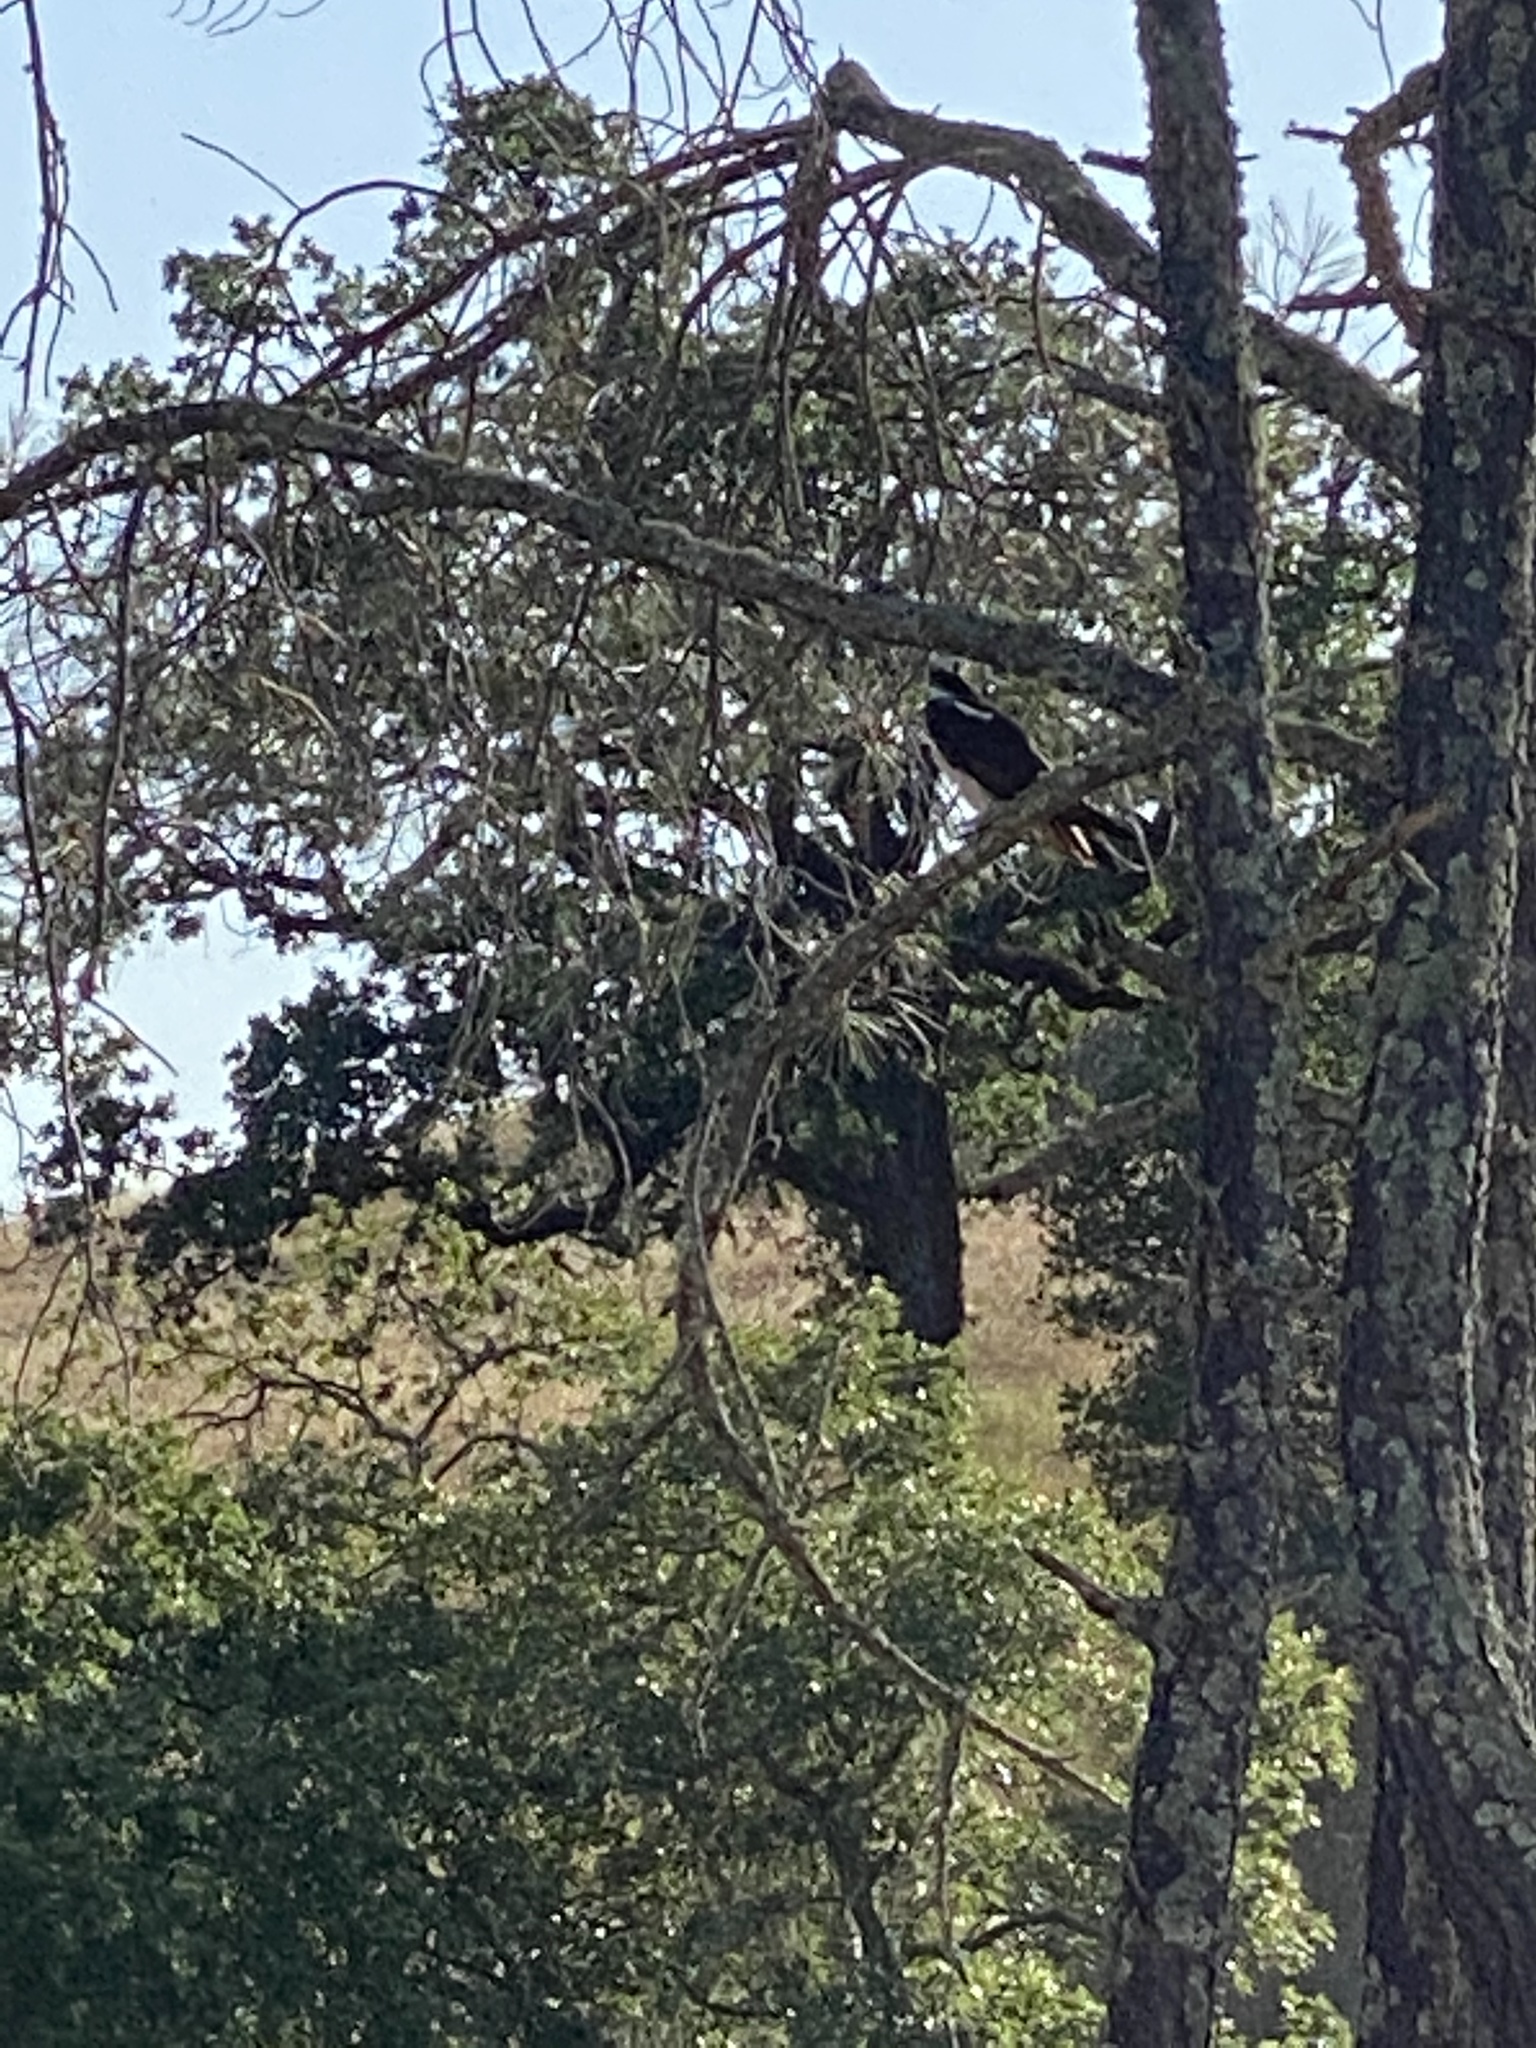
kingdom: Animalia
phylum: Chordata
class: Aves
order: Accipitriformes
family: Pandionidae
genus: Pandion
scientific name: Pandion haliaetus
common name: Osprey
